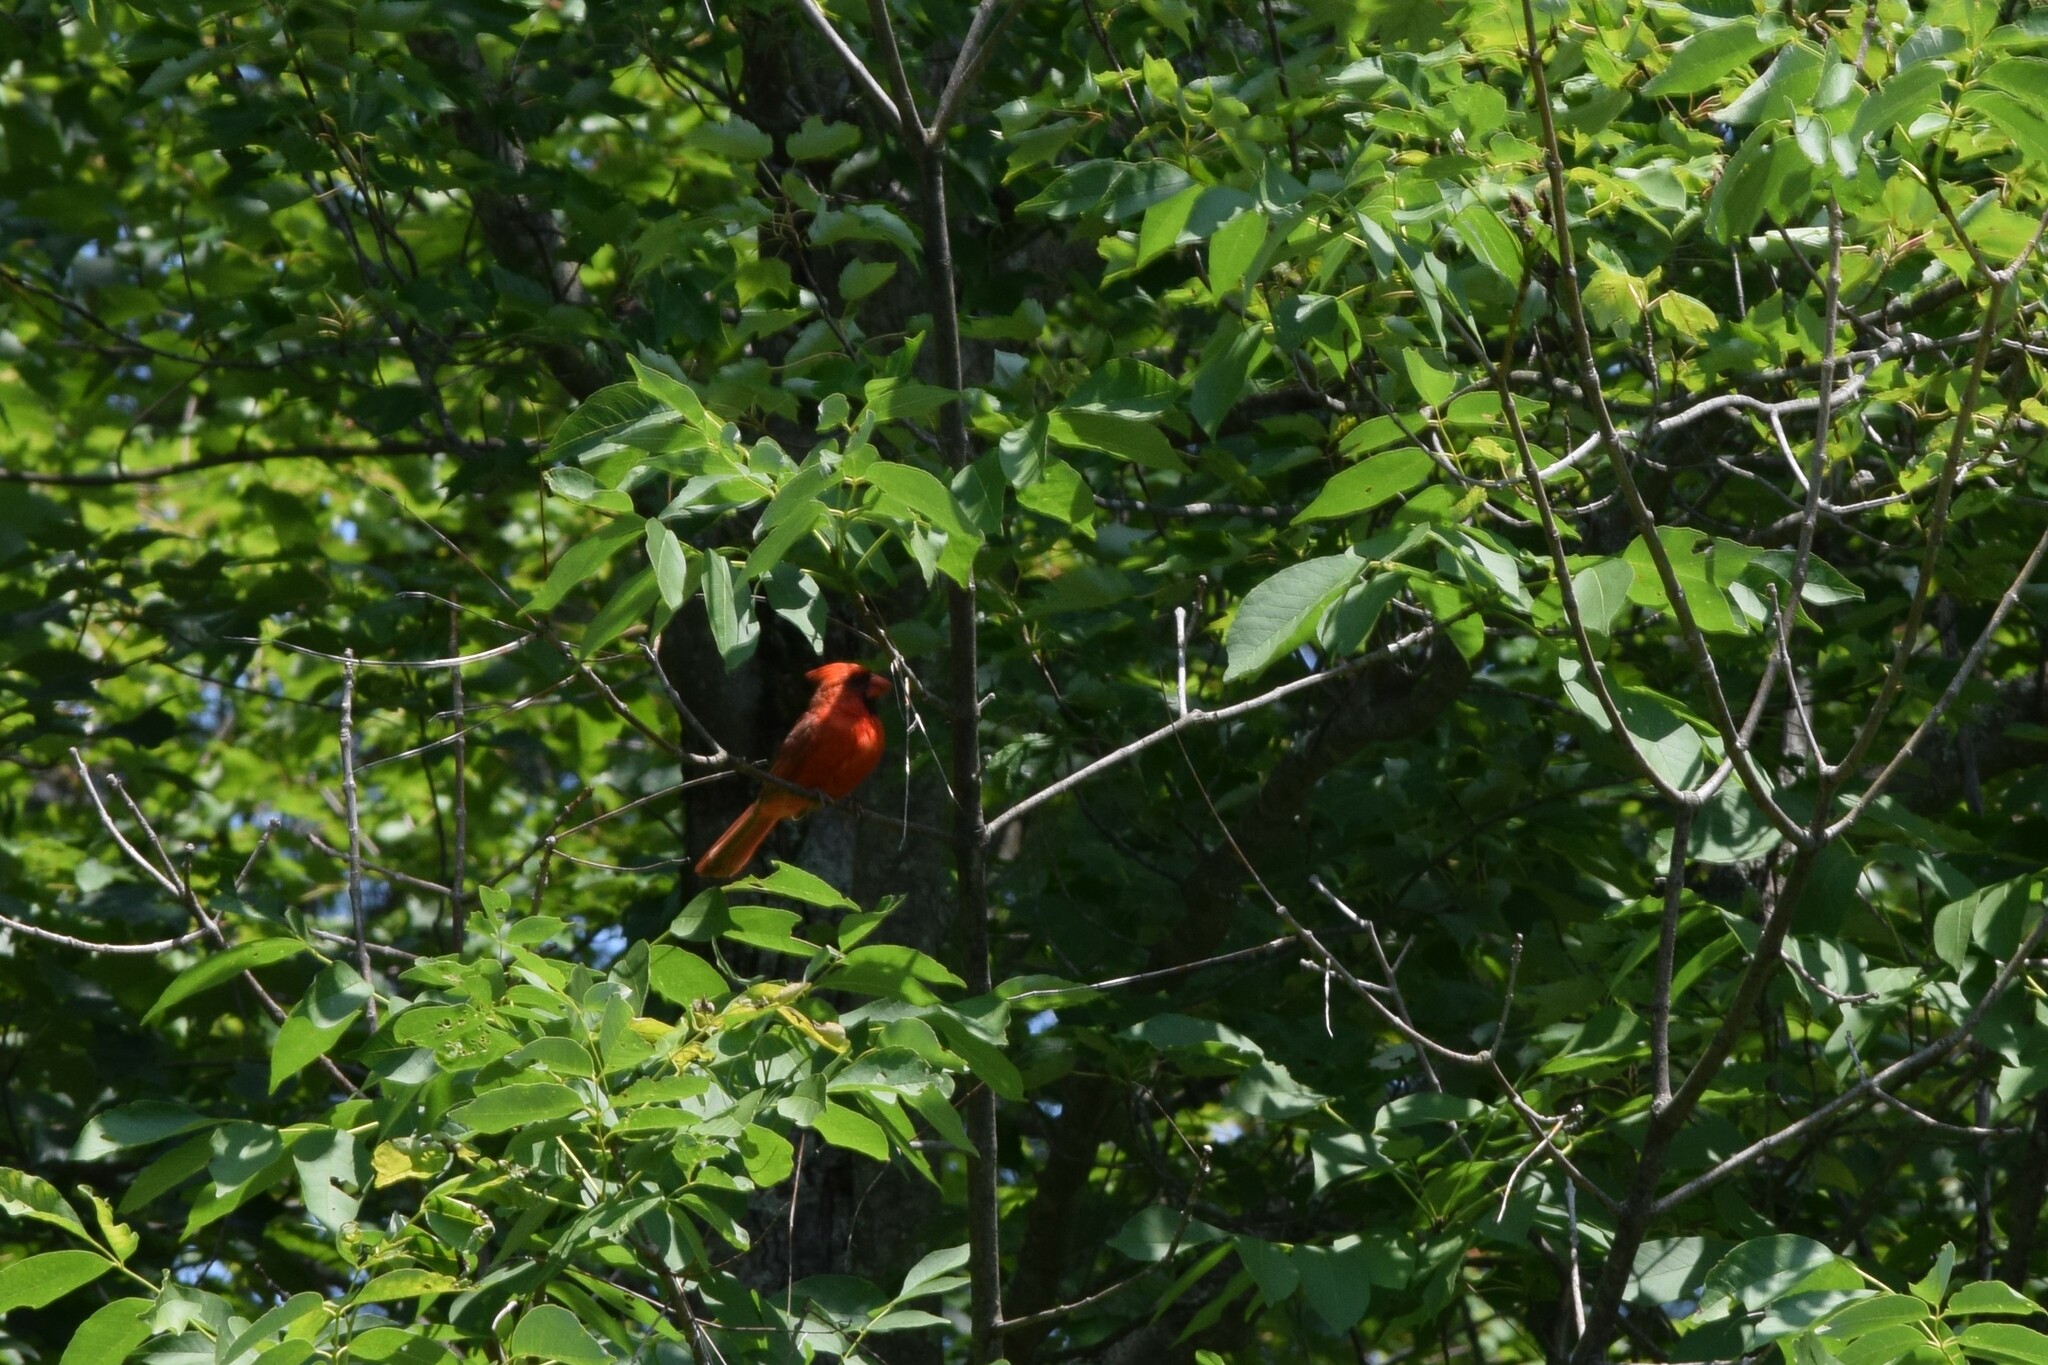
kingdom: Animalia
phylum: Chordata
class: Aves
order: Passeriformes
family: Cardinalidae
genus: Cardinalis
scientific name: Cardinalis cardinalis
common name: Northern cardinal
